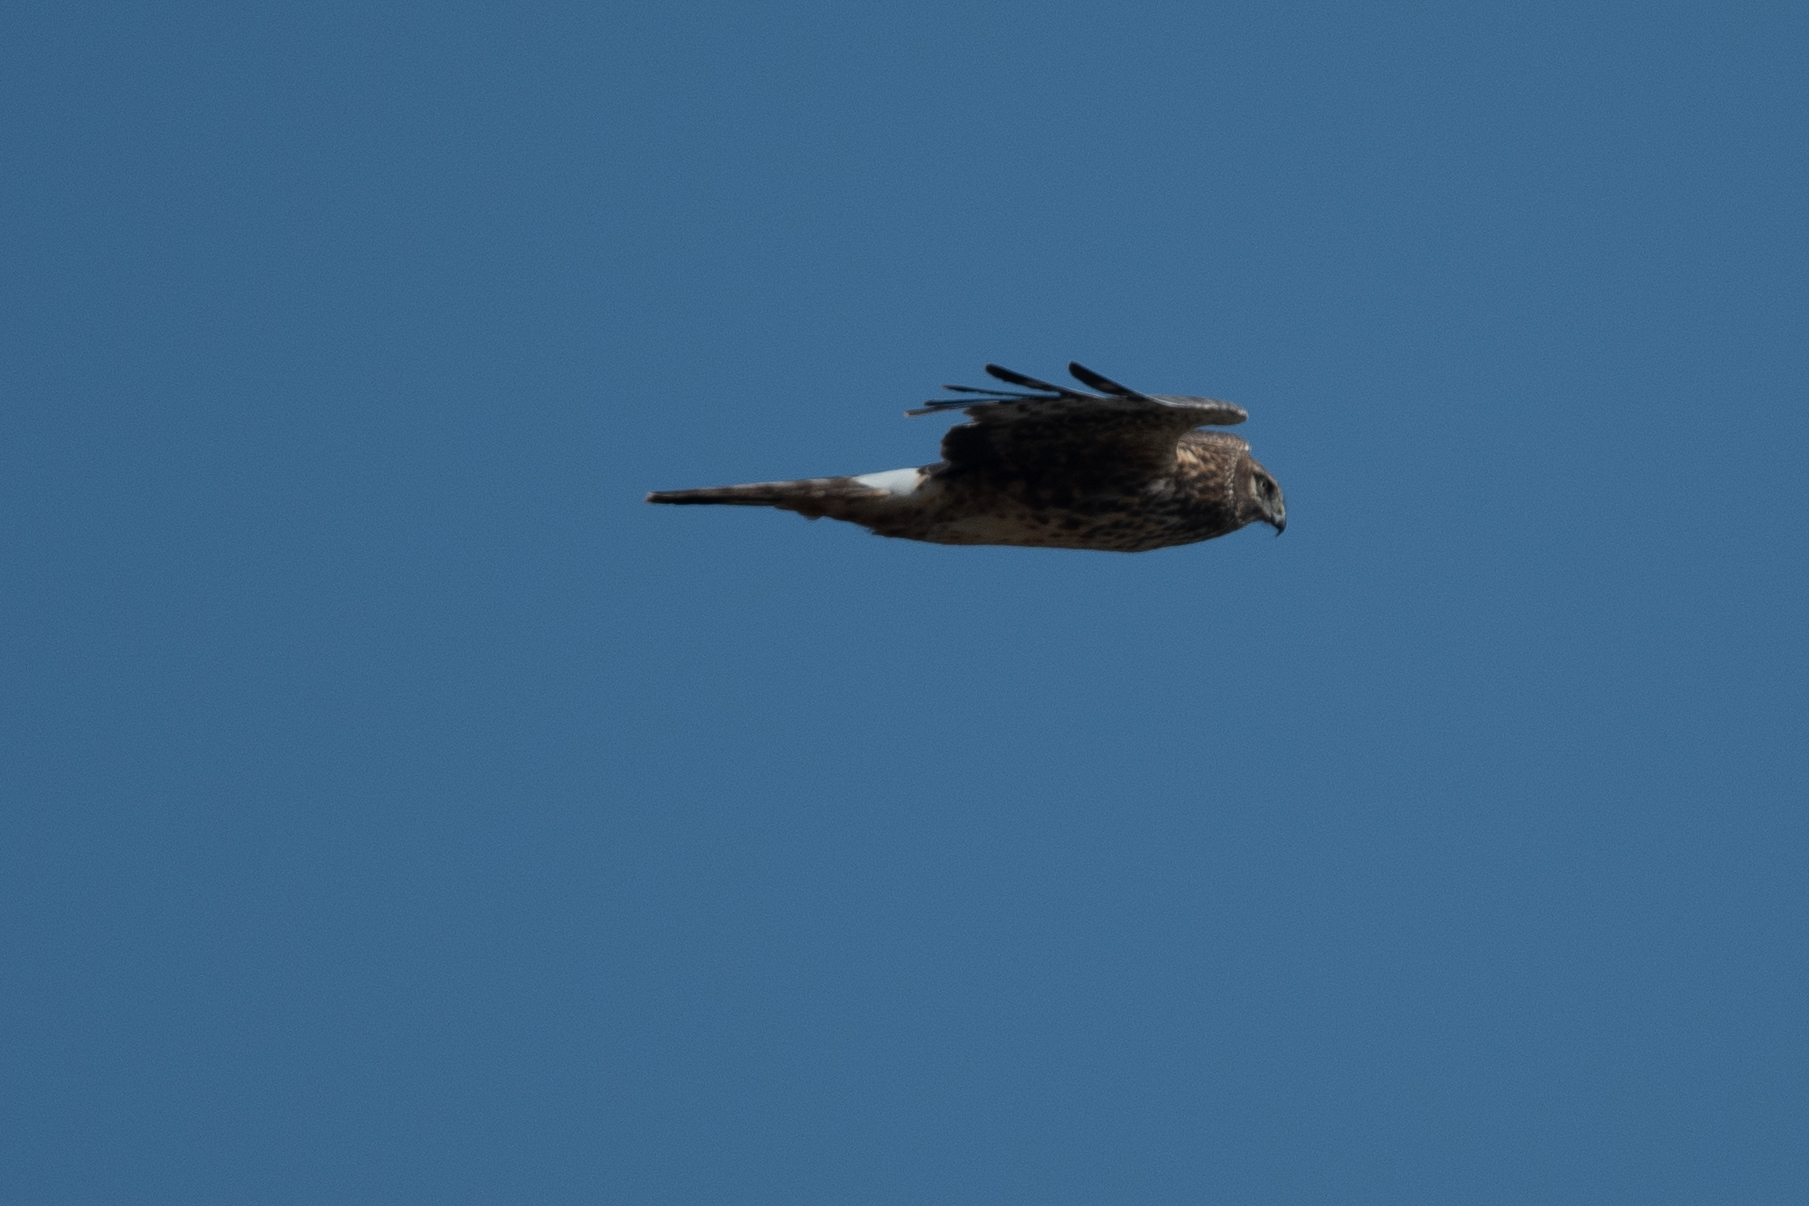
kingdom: Animalia
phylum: Chordata
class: Aves
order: Accipitriformes
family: Accipitridae
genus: Circus
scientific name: Circus cyaneus
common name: Hen harrier
